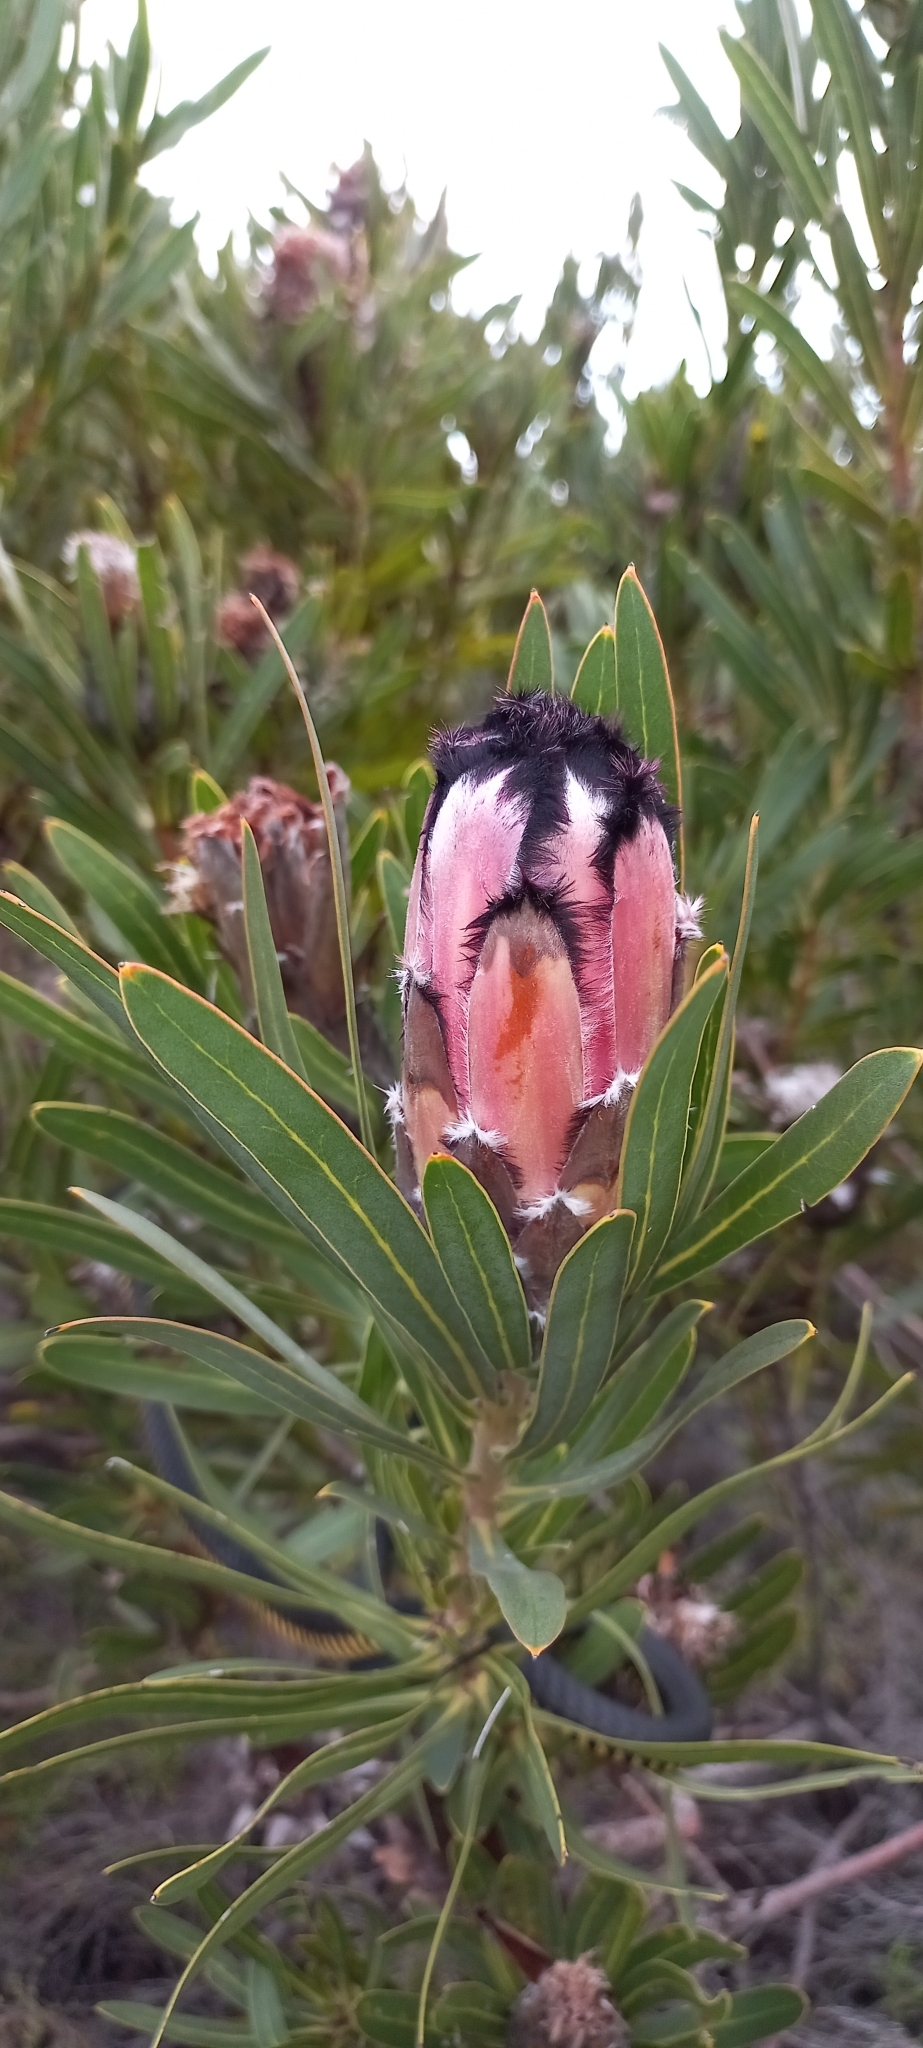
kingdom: Plantae
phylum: Tracheophyta
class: Magnoliopsida
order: Proteales
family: Proteaceae
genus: Protea
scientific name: Protea
